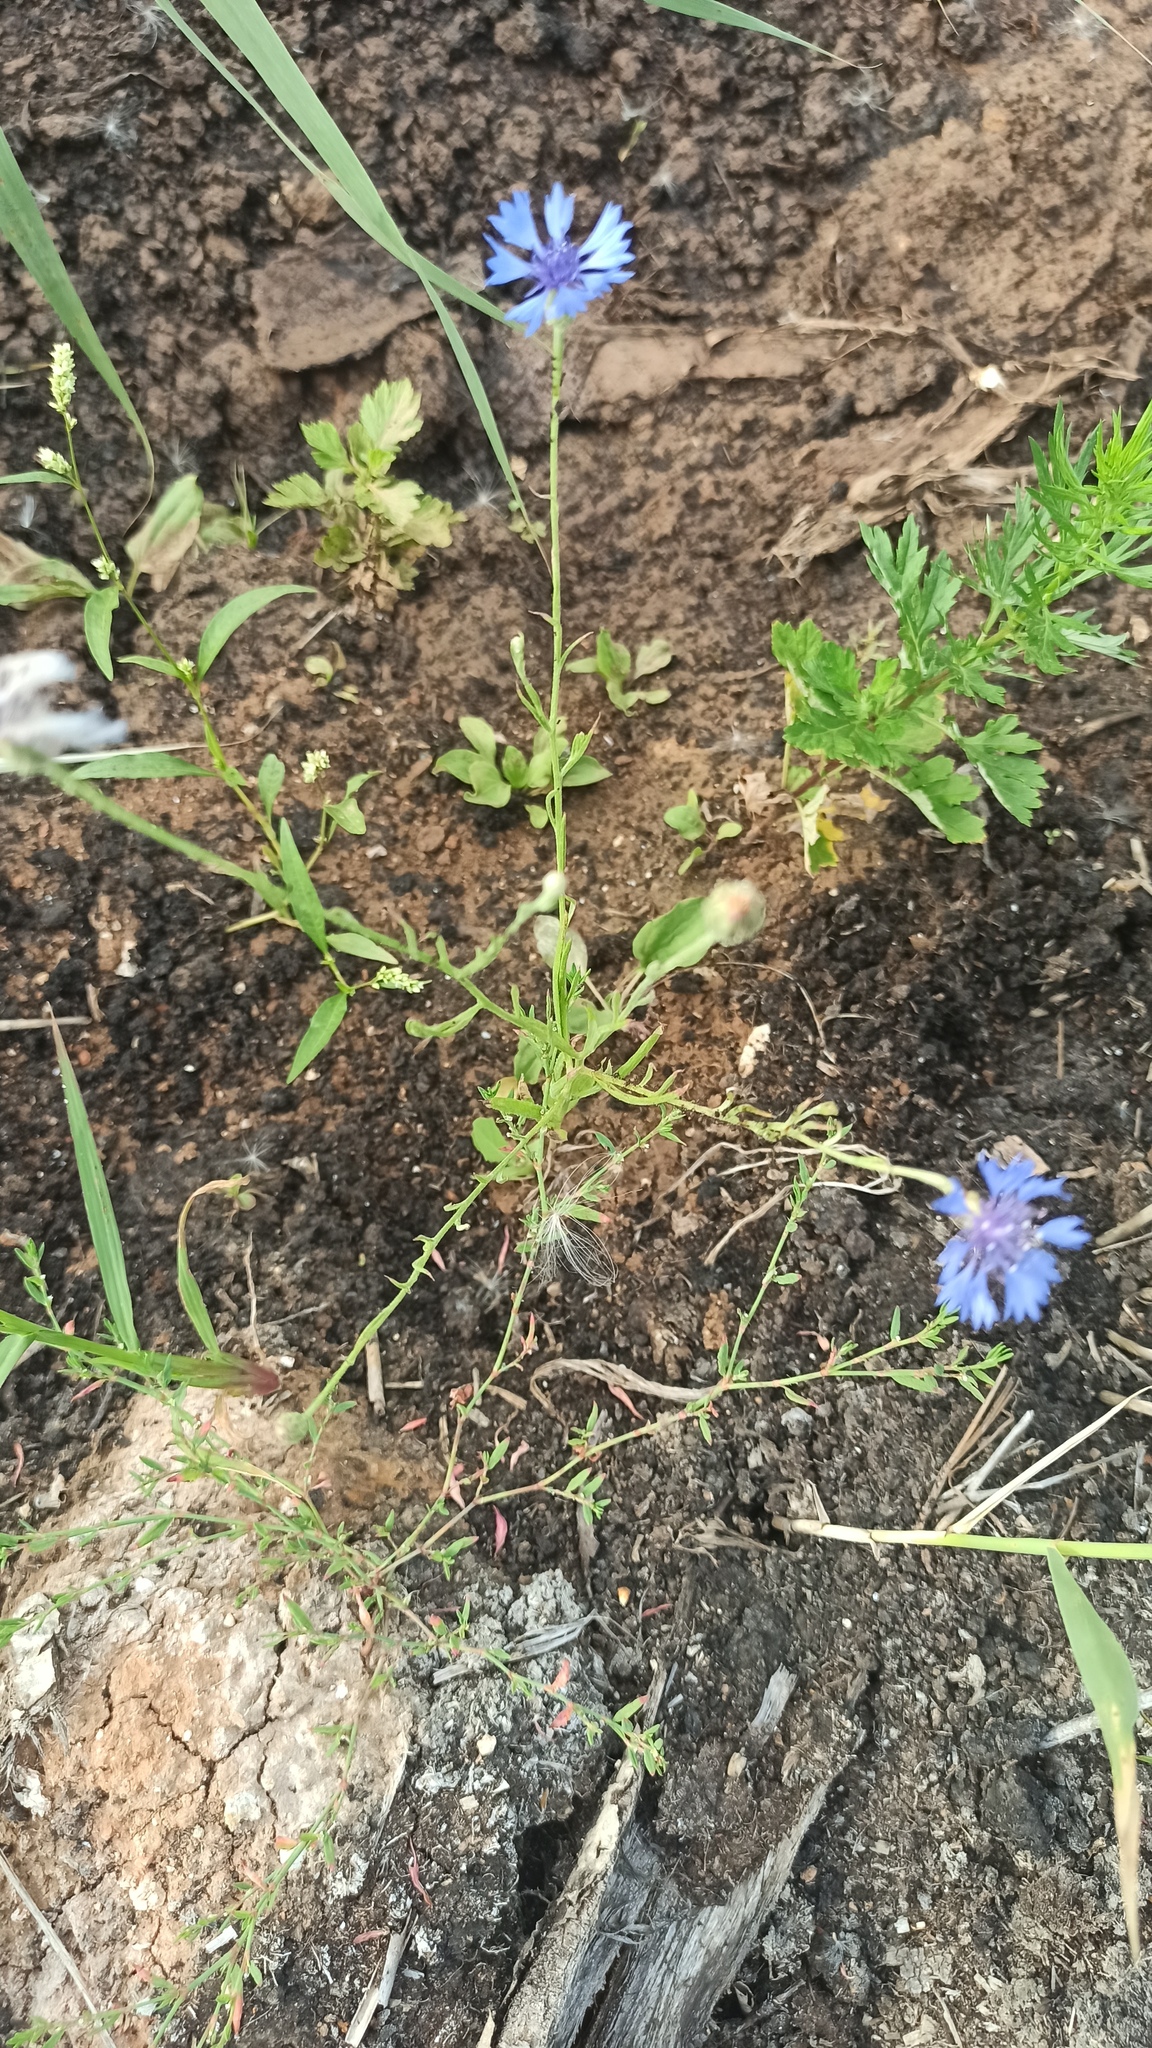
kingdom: Plantae
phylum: Tracheophyta
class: Magnoliopsida
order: Asterales
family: Asteraceae
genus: Centaurea
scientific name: Centaurea cyanus
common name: Cornflower
